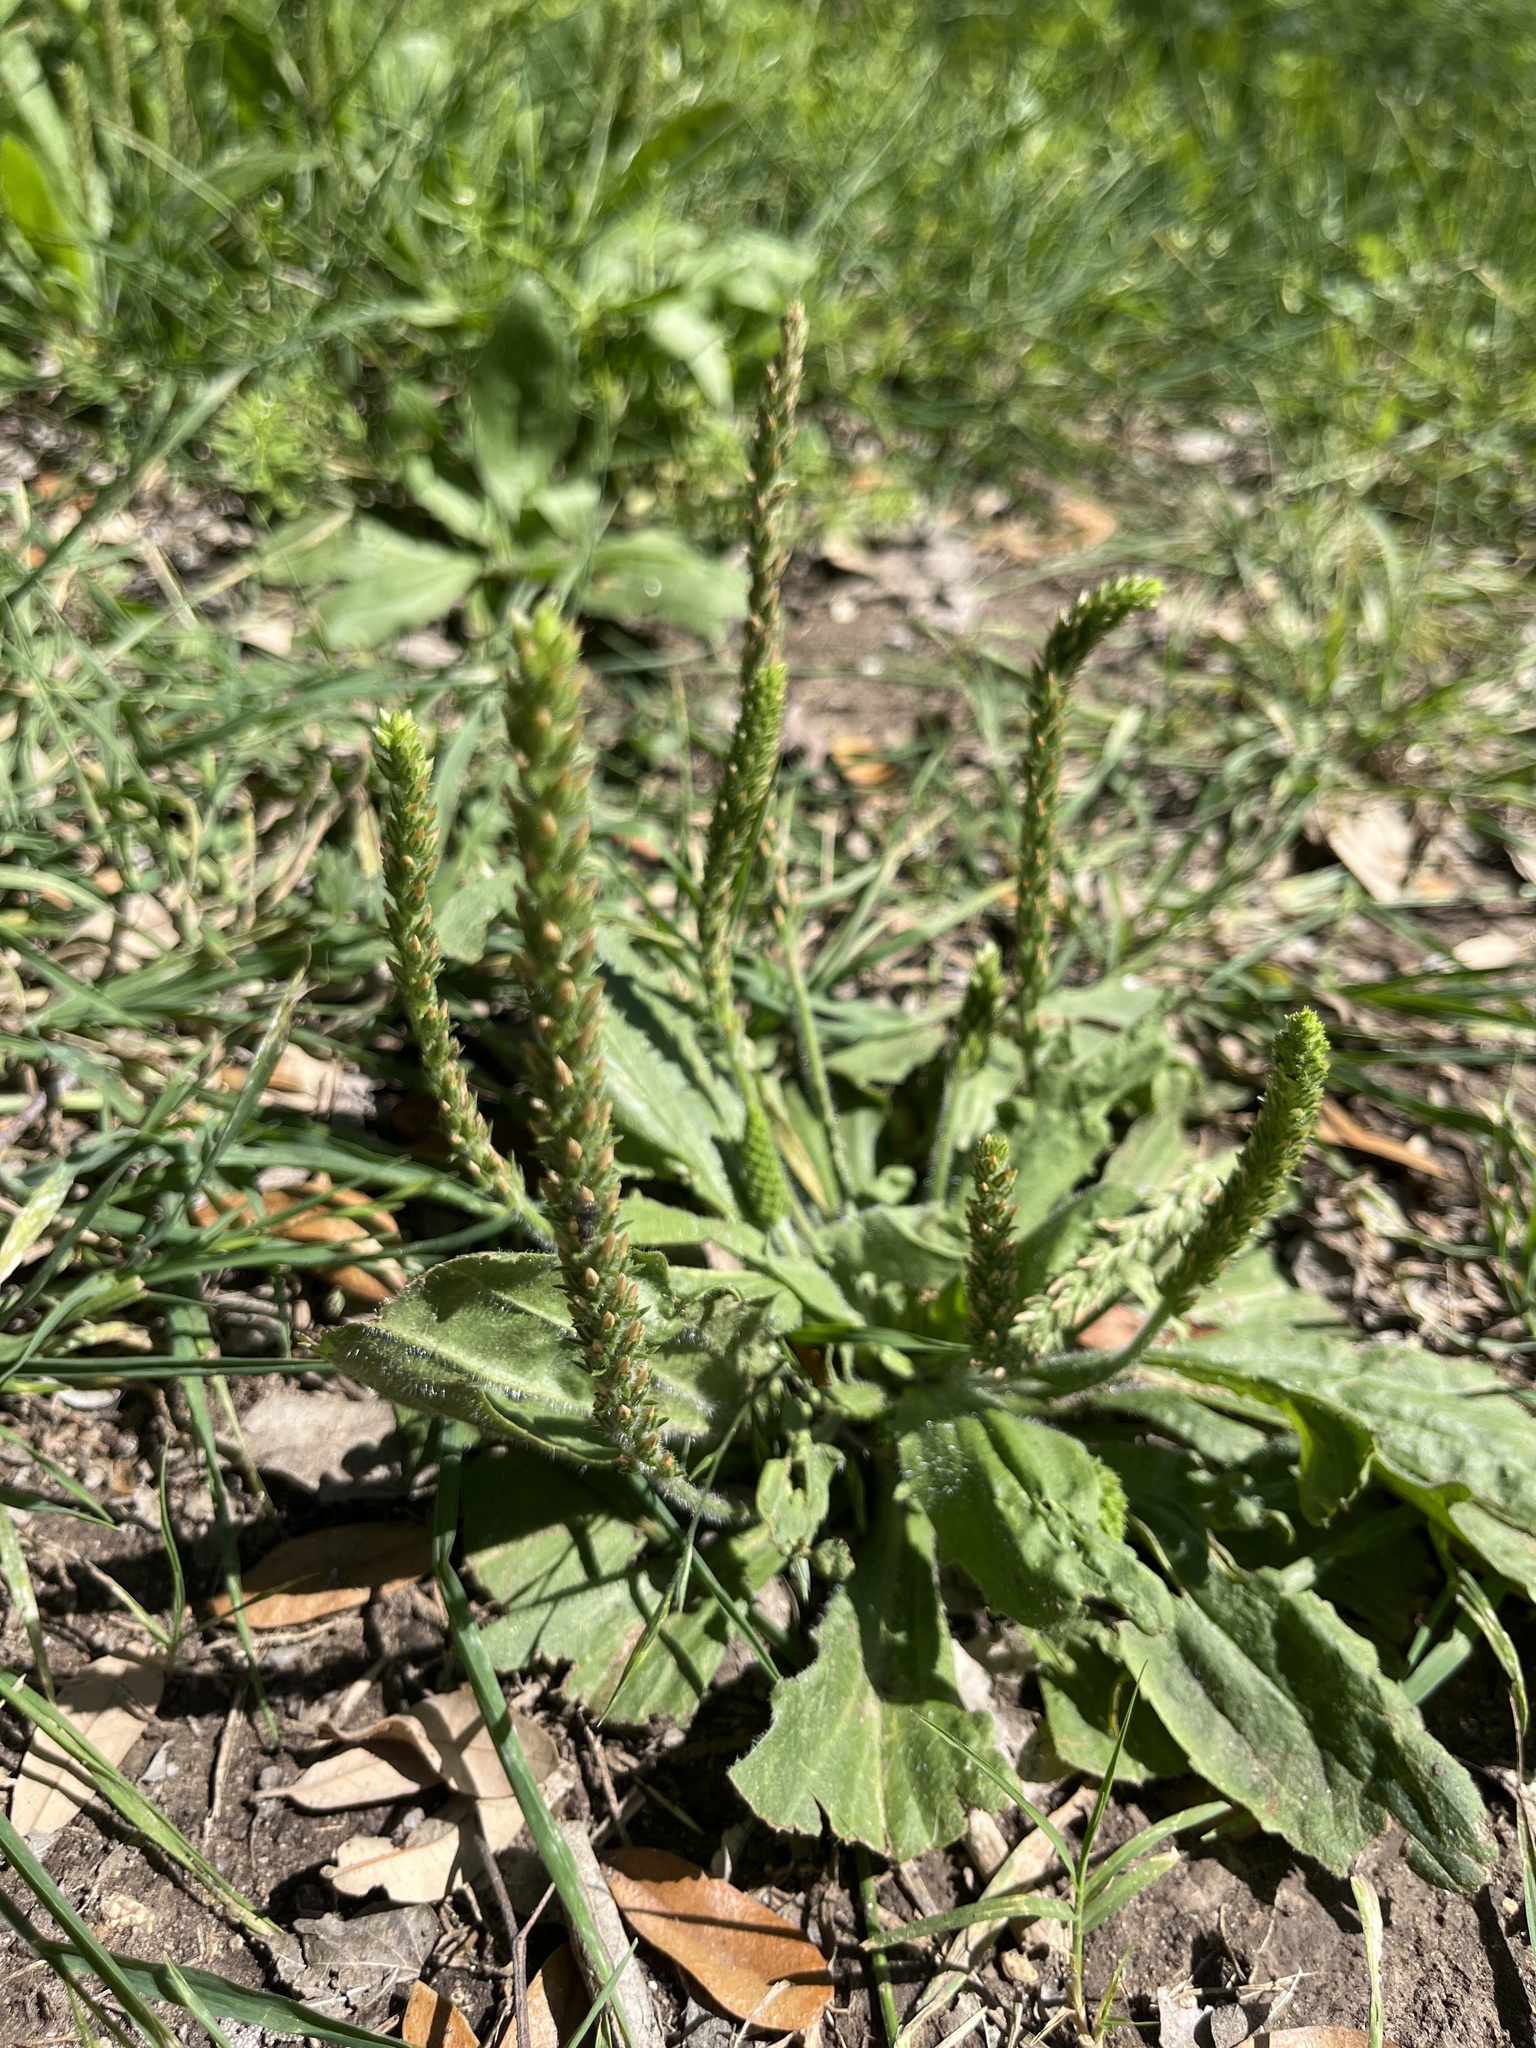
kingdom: Plantae
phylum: Tracheophyta
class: Magnoliopsida
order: Lamiales
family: Plantaginaceae
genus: Plantago
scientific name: Plantago rhodosperma
